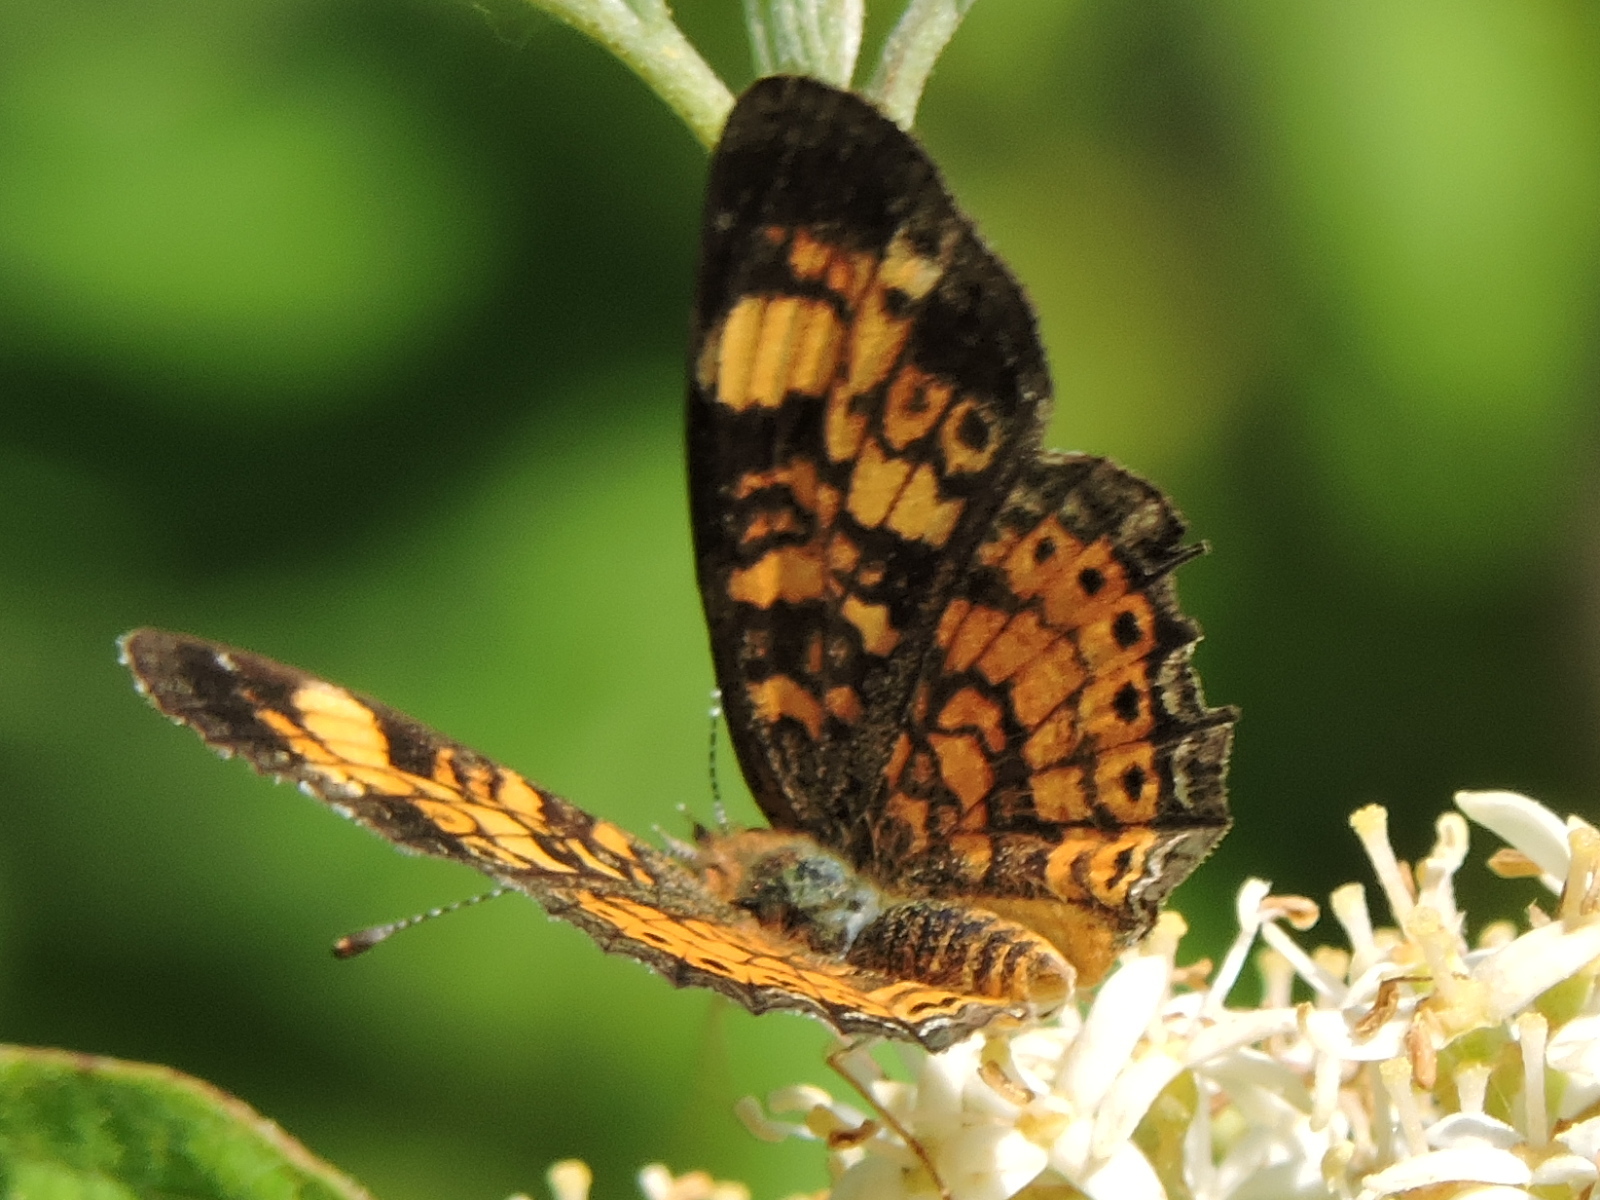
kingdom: Animalia
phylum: Arthropoda
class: Insecta
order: Lepidoptera
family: Nymphalidae
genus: Phyciodes
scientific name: Phyciodes tharos
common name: Pearl crescent
